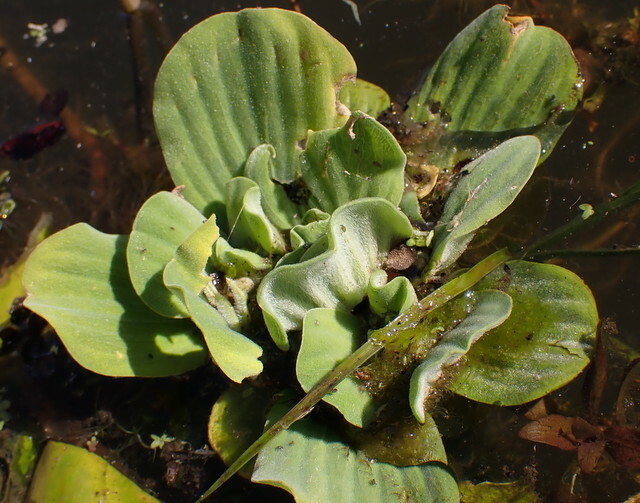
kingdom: Plantae
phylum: Tracheophyta
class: Liliopsida
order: Alismatales
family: Araceae
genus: Pistia
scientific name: Pistia stratiotes
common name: Water lettuce
